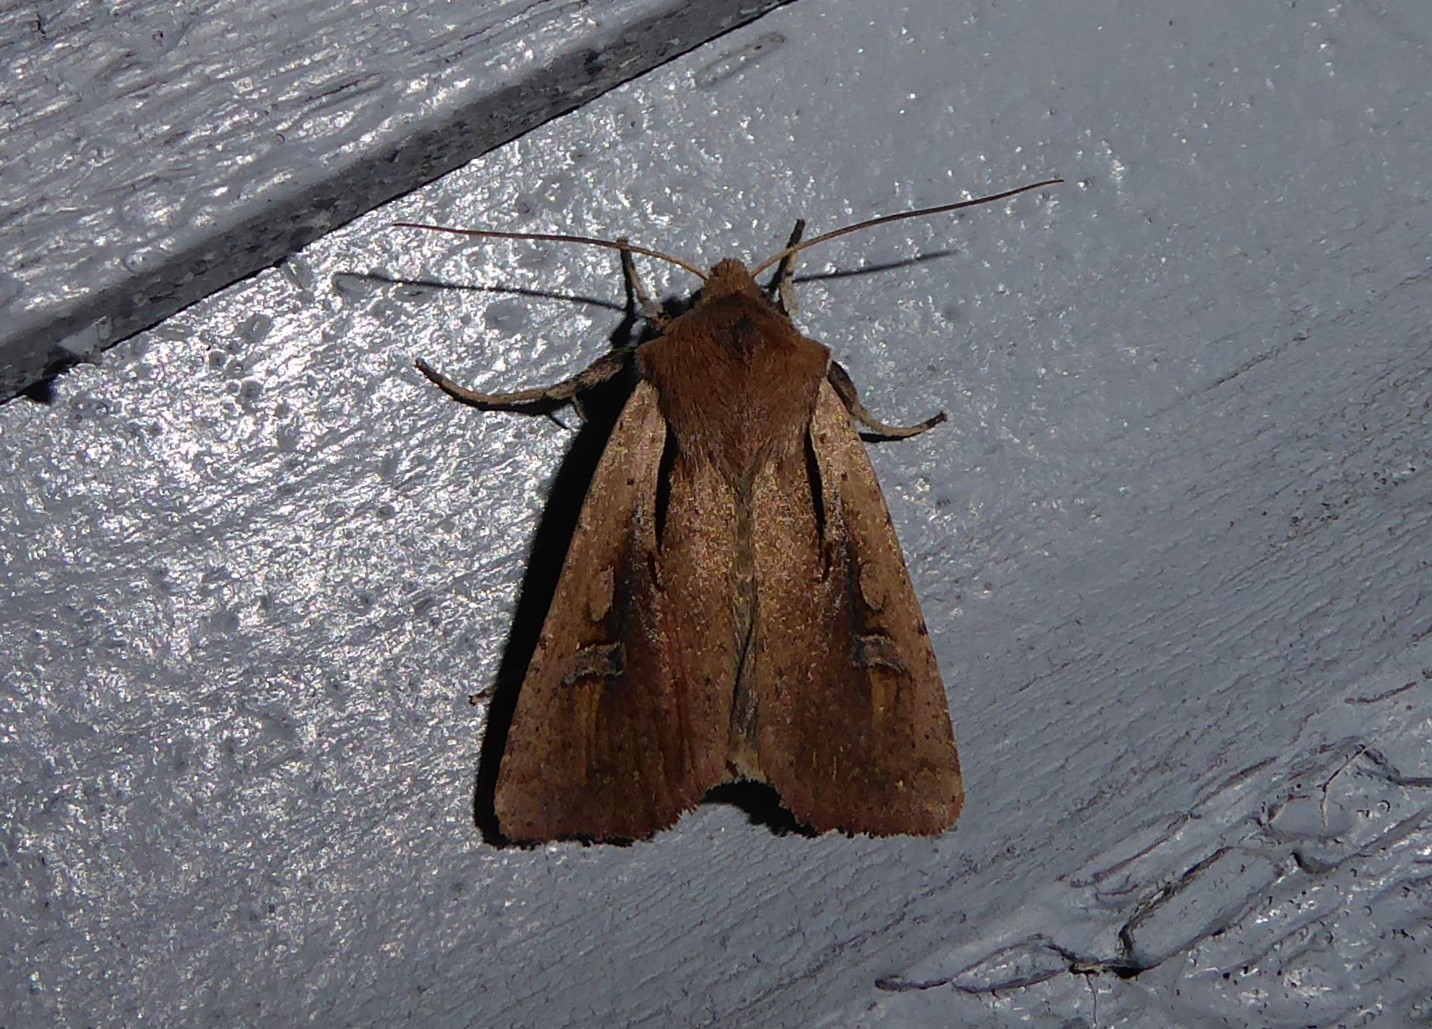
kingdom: Animalia
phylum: Arthropoda
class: Insecta
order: Lepidoptera
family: Noctuidae
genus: Ichneutica
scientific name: Ichneutica atristriga
